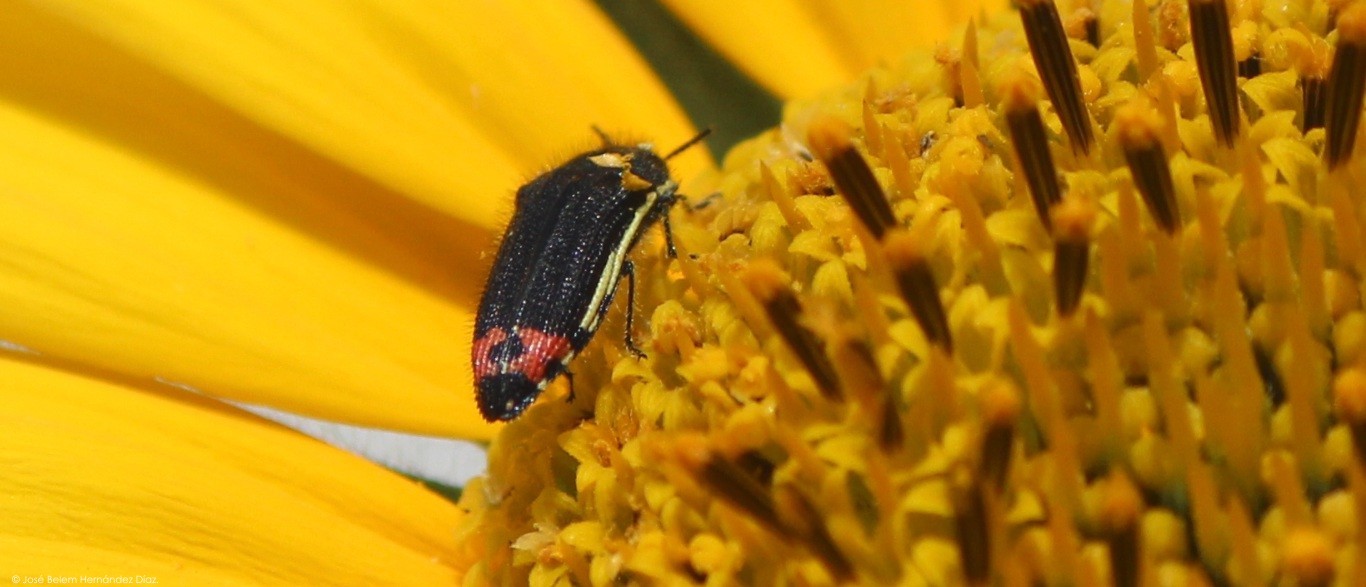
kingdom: Animalia
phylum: Arthropoda
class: Insecta
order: Coleoptera
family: Buprestidae
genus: Acmaeodera
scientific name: Acmaeodera flavomarginata
